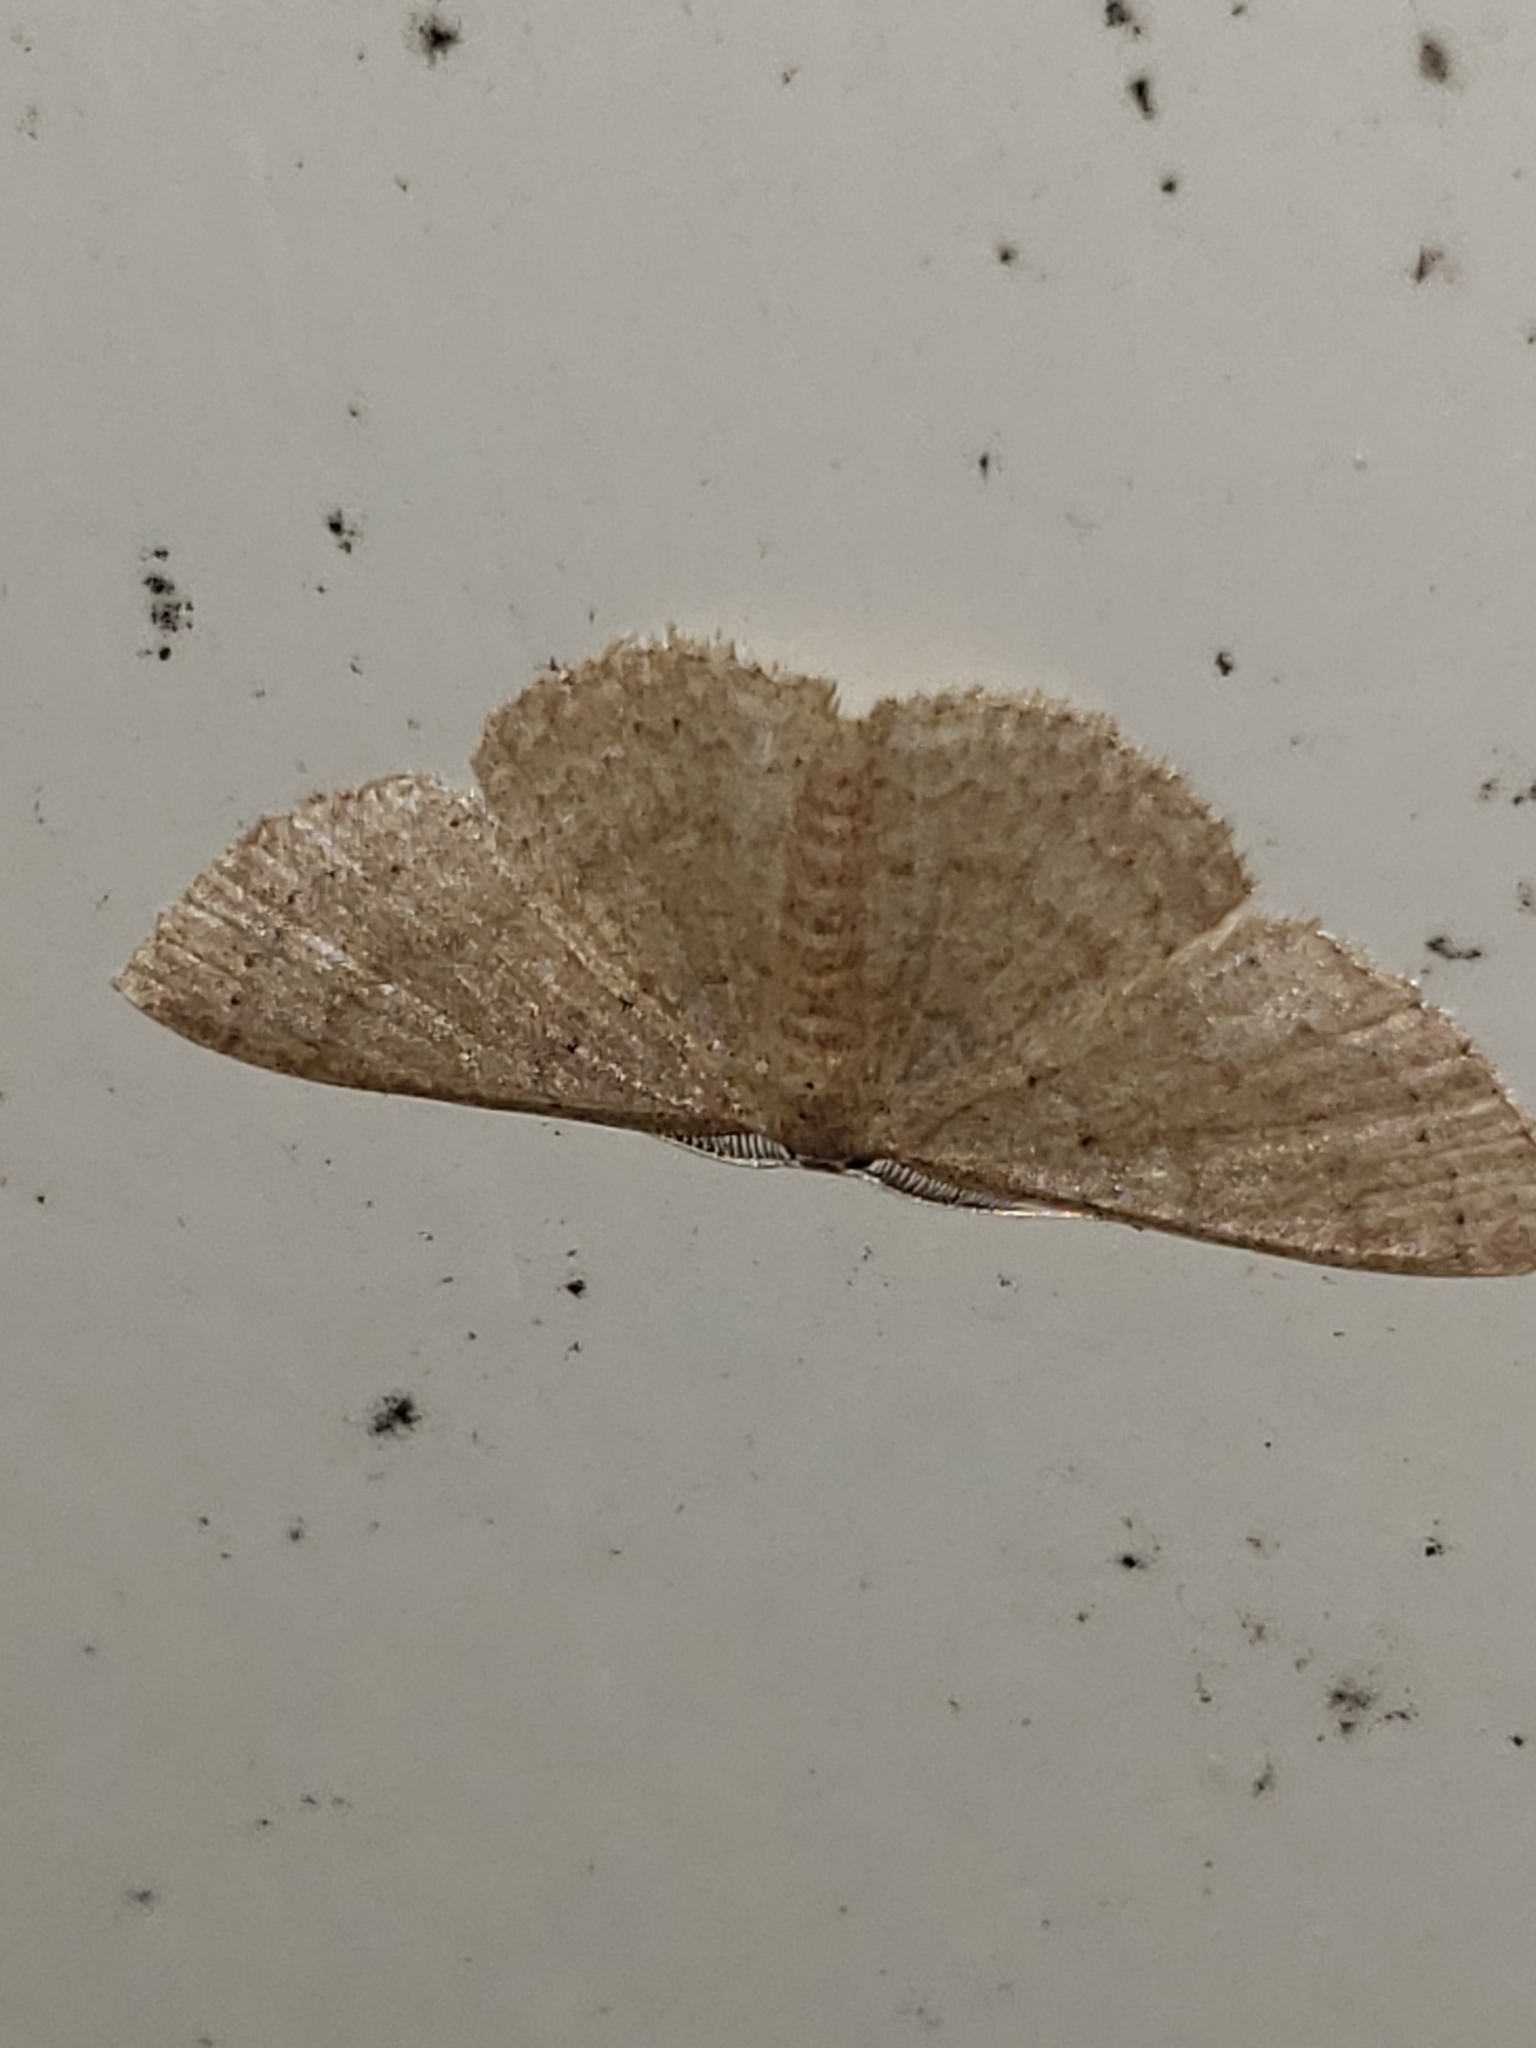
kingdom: Animalia
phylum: Arthropoda
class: Insecta
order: Lepidoptera
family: Geometridae
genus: Pleuroprucha
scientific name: Pleuroprucha insulsaria
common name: Common tan wave
